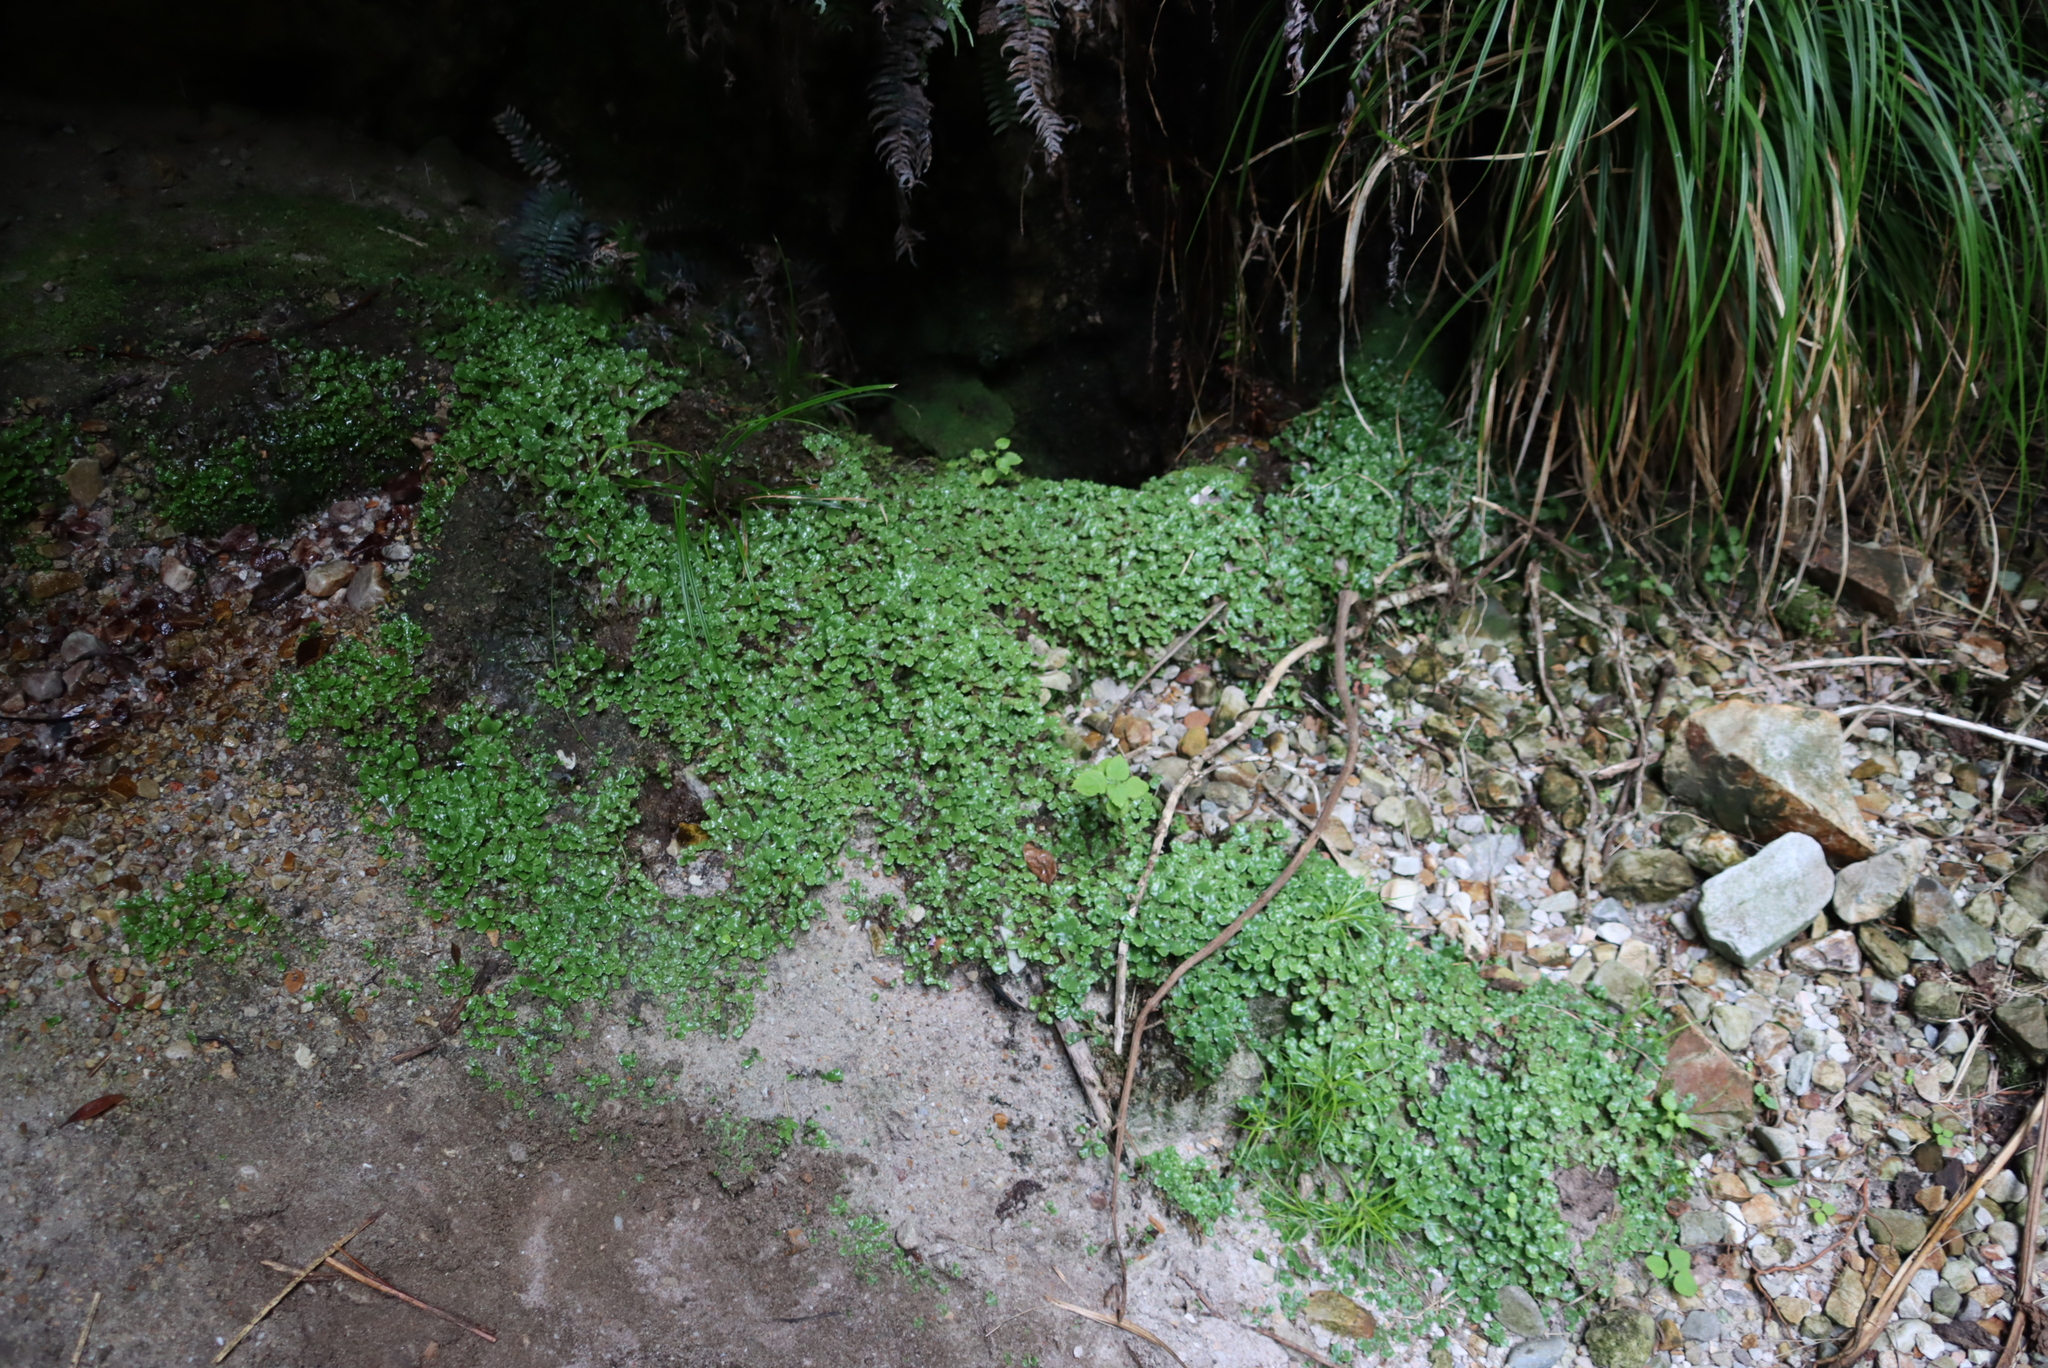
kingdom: Plantae
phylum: Marchantiophyta
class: Marchantiopsida
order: Marchantiales
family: Marchantiaceae
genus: Marchantia
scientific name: Marchantia berteroana
